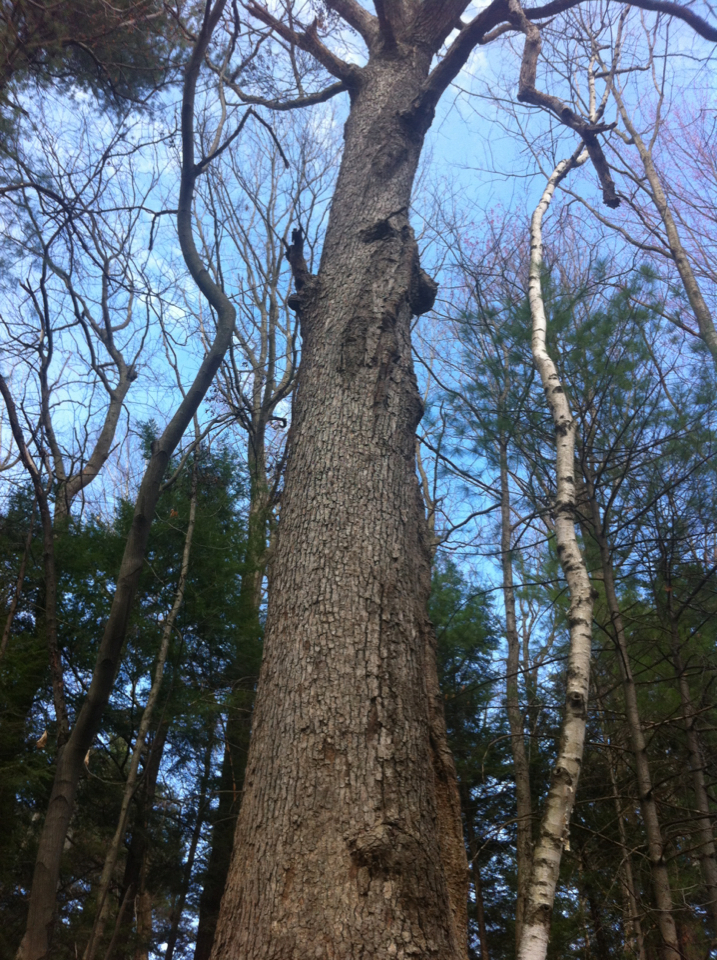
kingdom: Plantae
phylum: Tracheophyta
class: Magnoliopsida
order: Fagales
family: Fagaceae
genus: Quercus
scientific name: Quercus alba
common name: White oak
